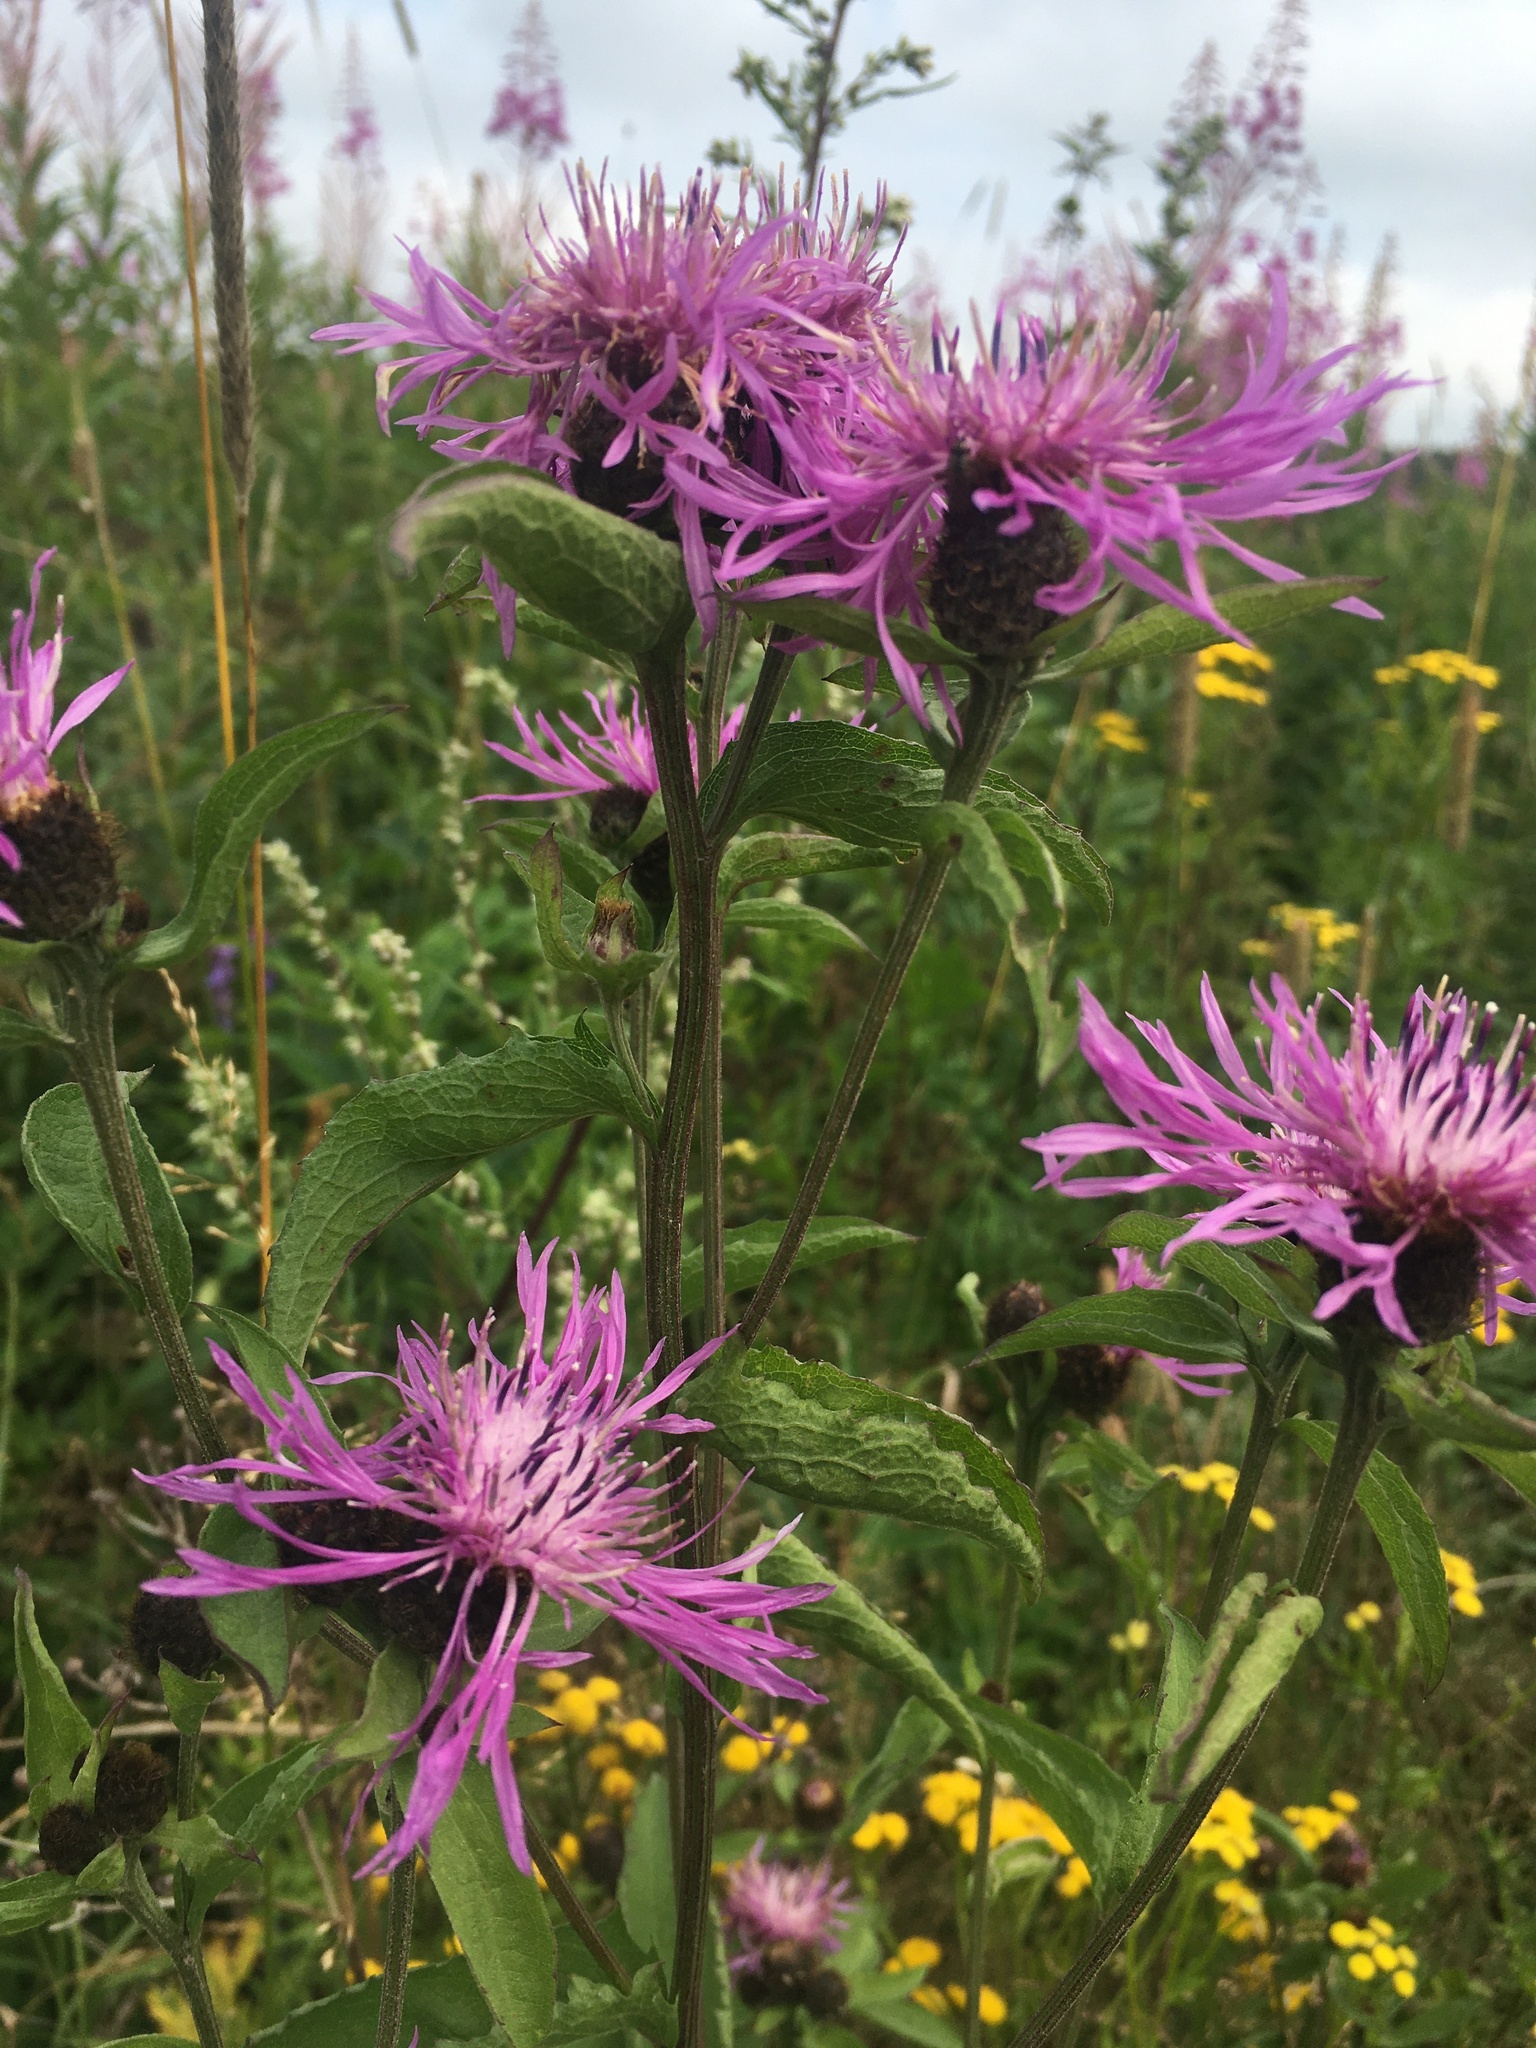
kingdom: Plantae
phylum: Tracheophyta
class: Magnoliopsida
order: Asterales
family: Asteraceae
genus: Centaurea
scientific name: Centaurea phrygia
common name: Wig knapweed
